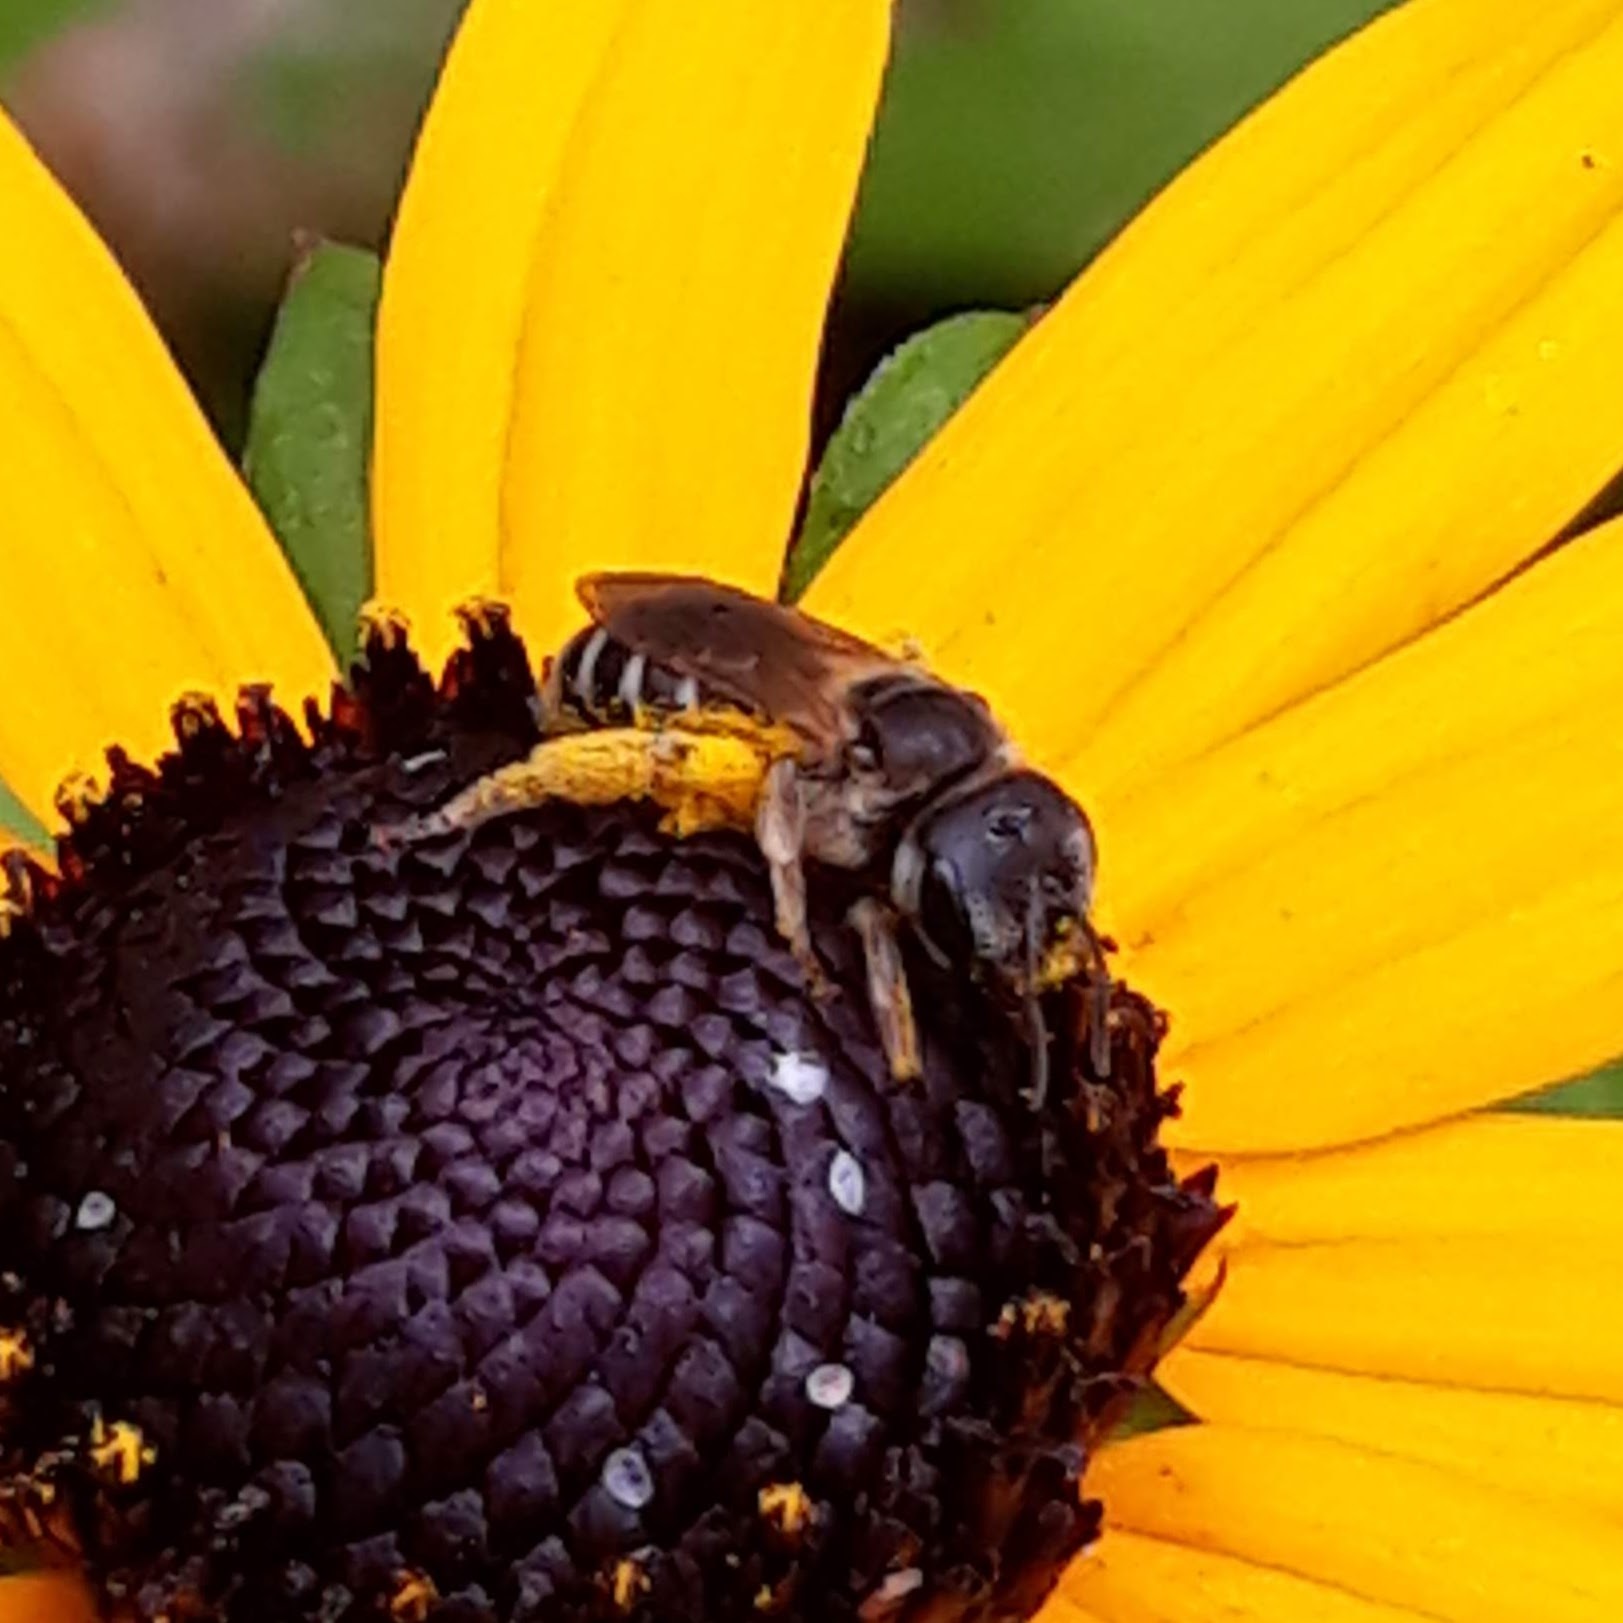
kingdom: Animalia
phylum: Arthropoda
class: Insecta
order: Hymenoptera
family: Halictidae
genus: Halictus
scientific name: Halictus ligatus
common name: Ligated furrow bee
